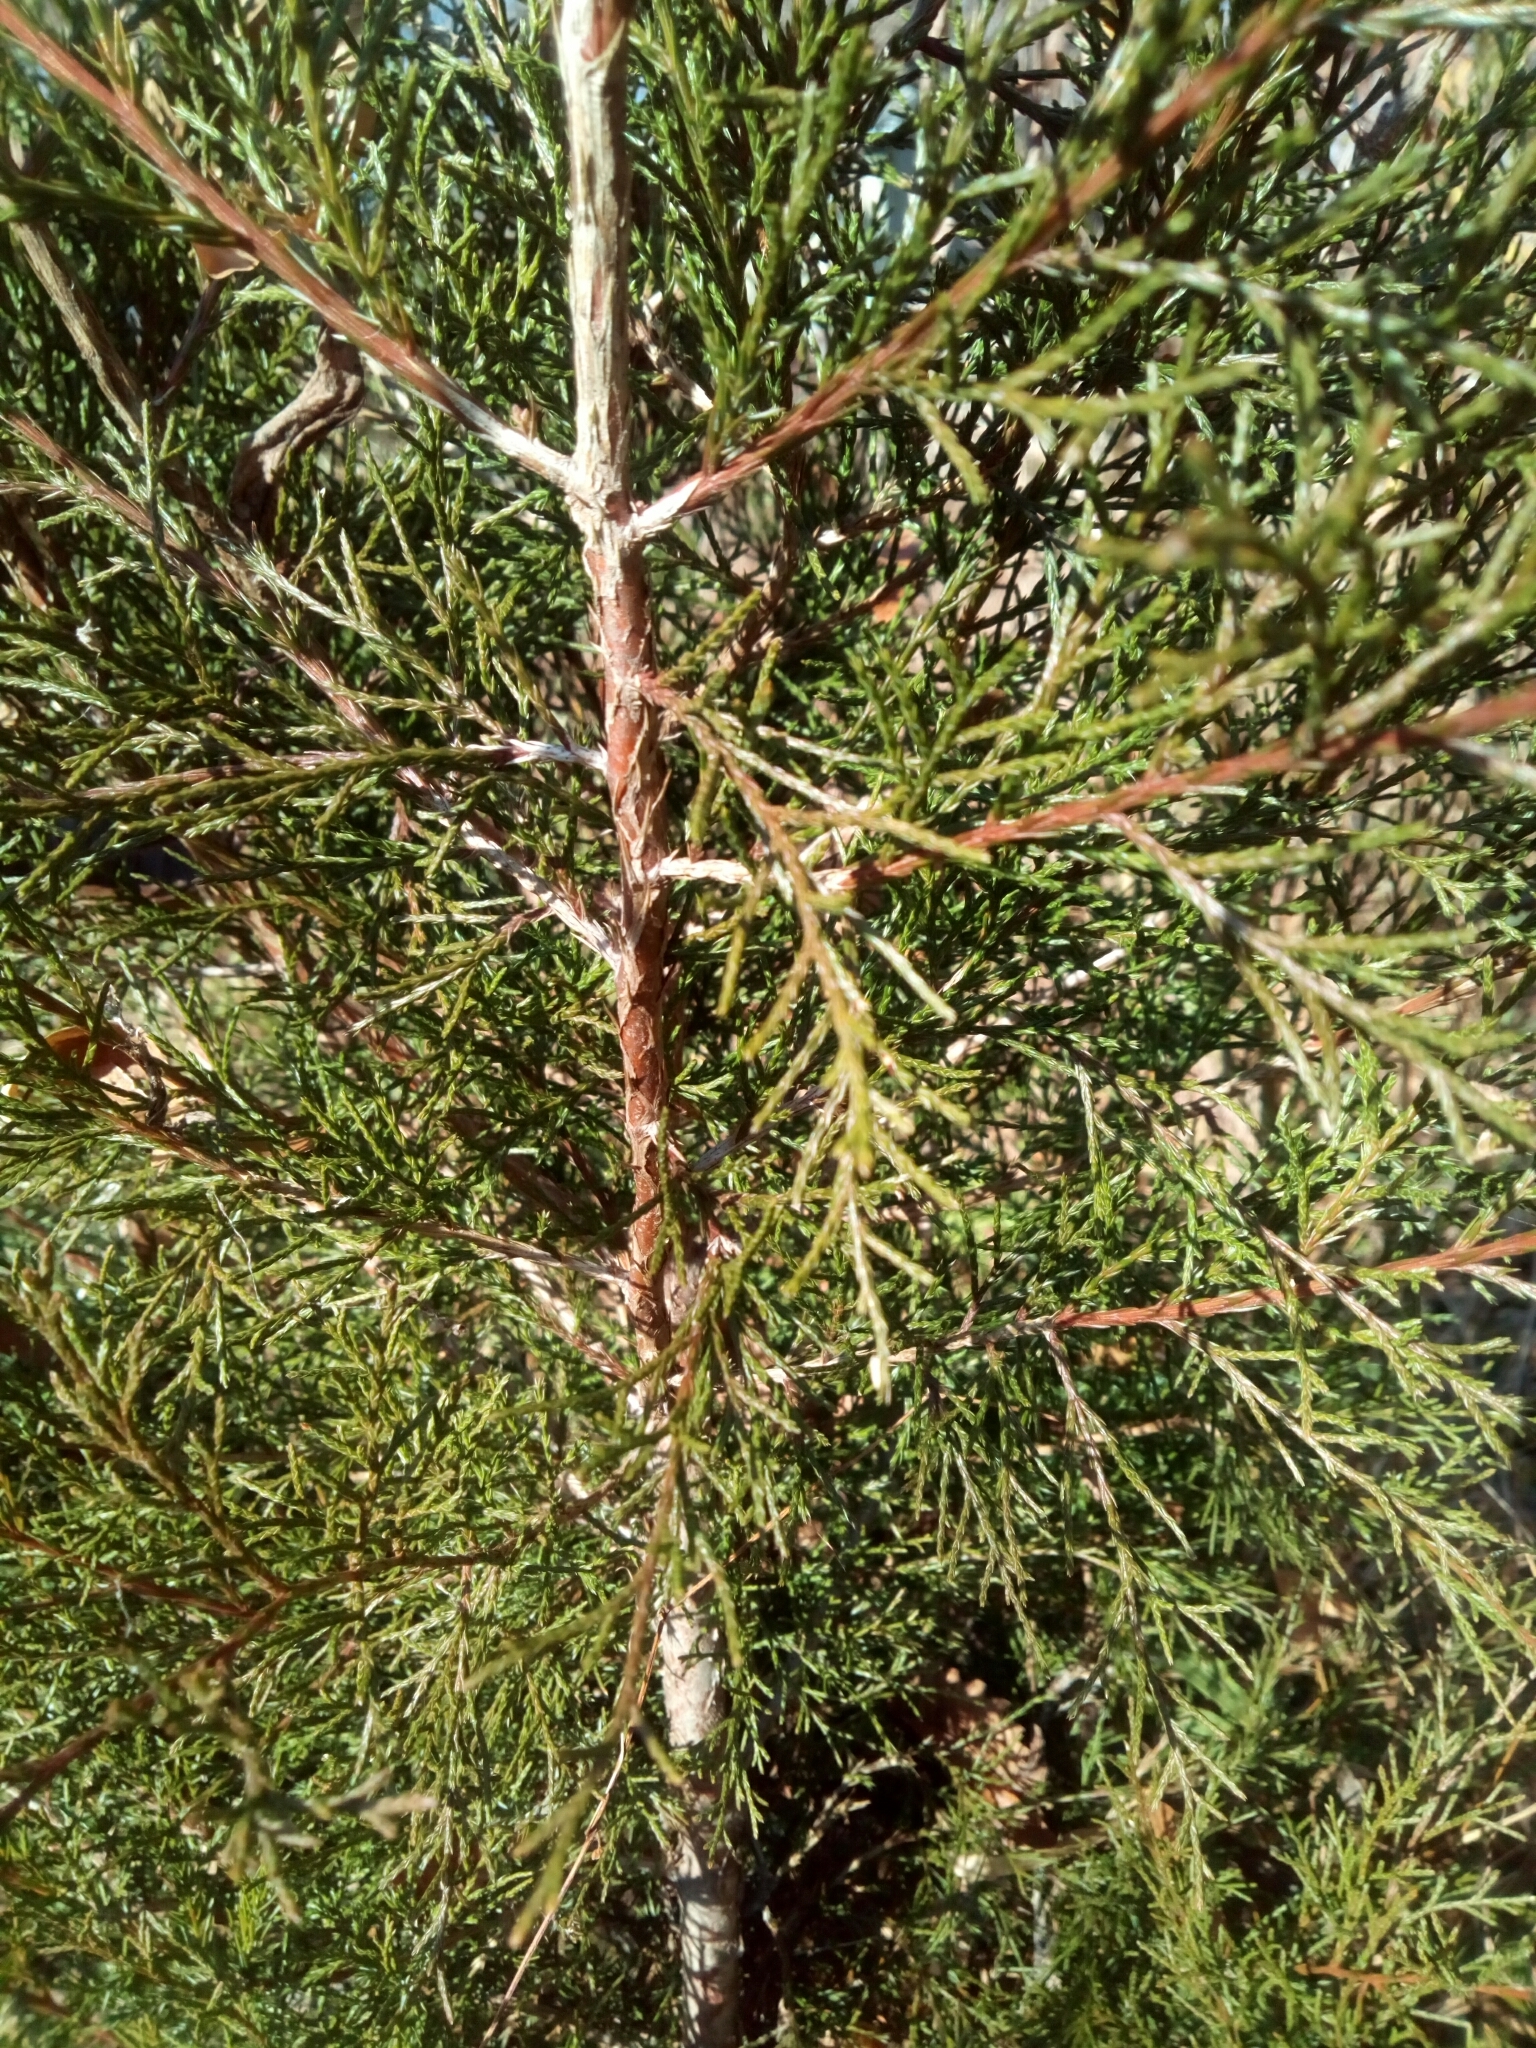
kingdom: Plantae
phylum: Tracheophyta
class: Pinopsida
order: Pinales
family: Cupressaceae
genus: Juniperus
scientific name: Juniperus virginiana
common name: Red juniper
